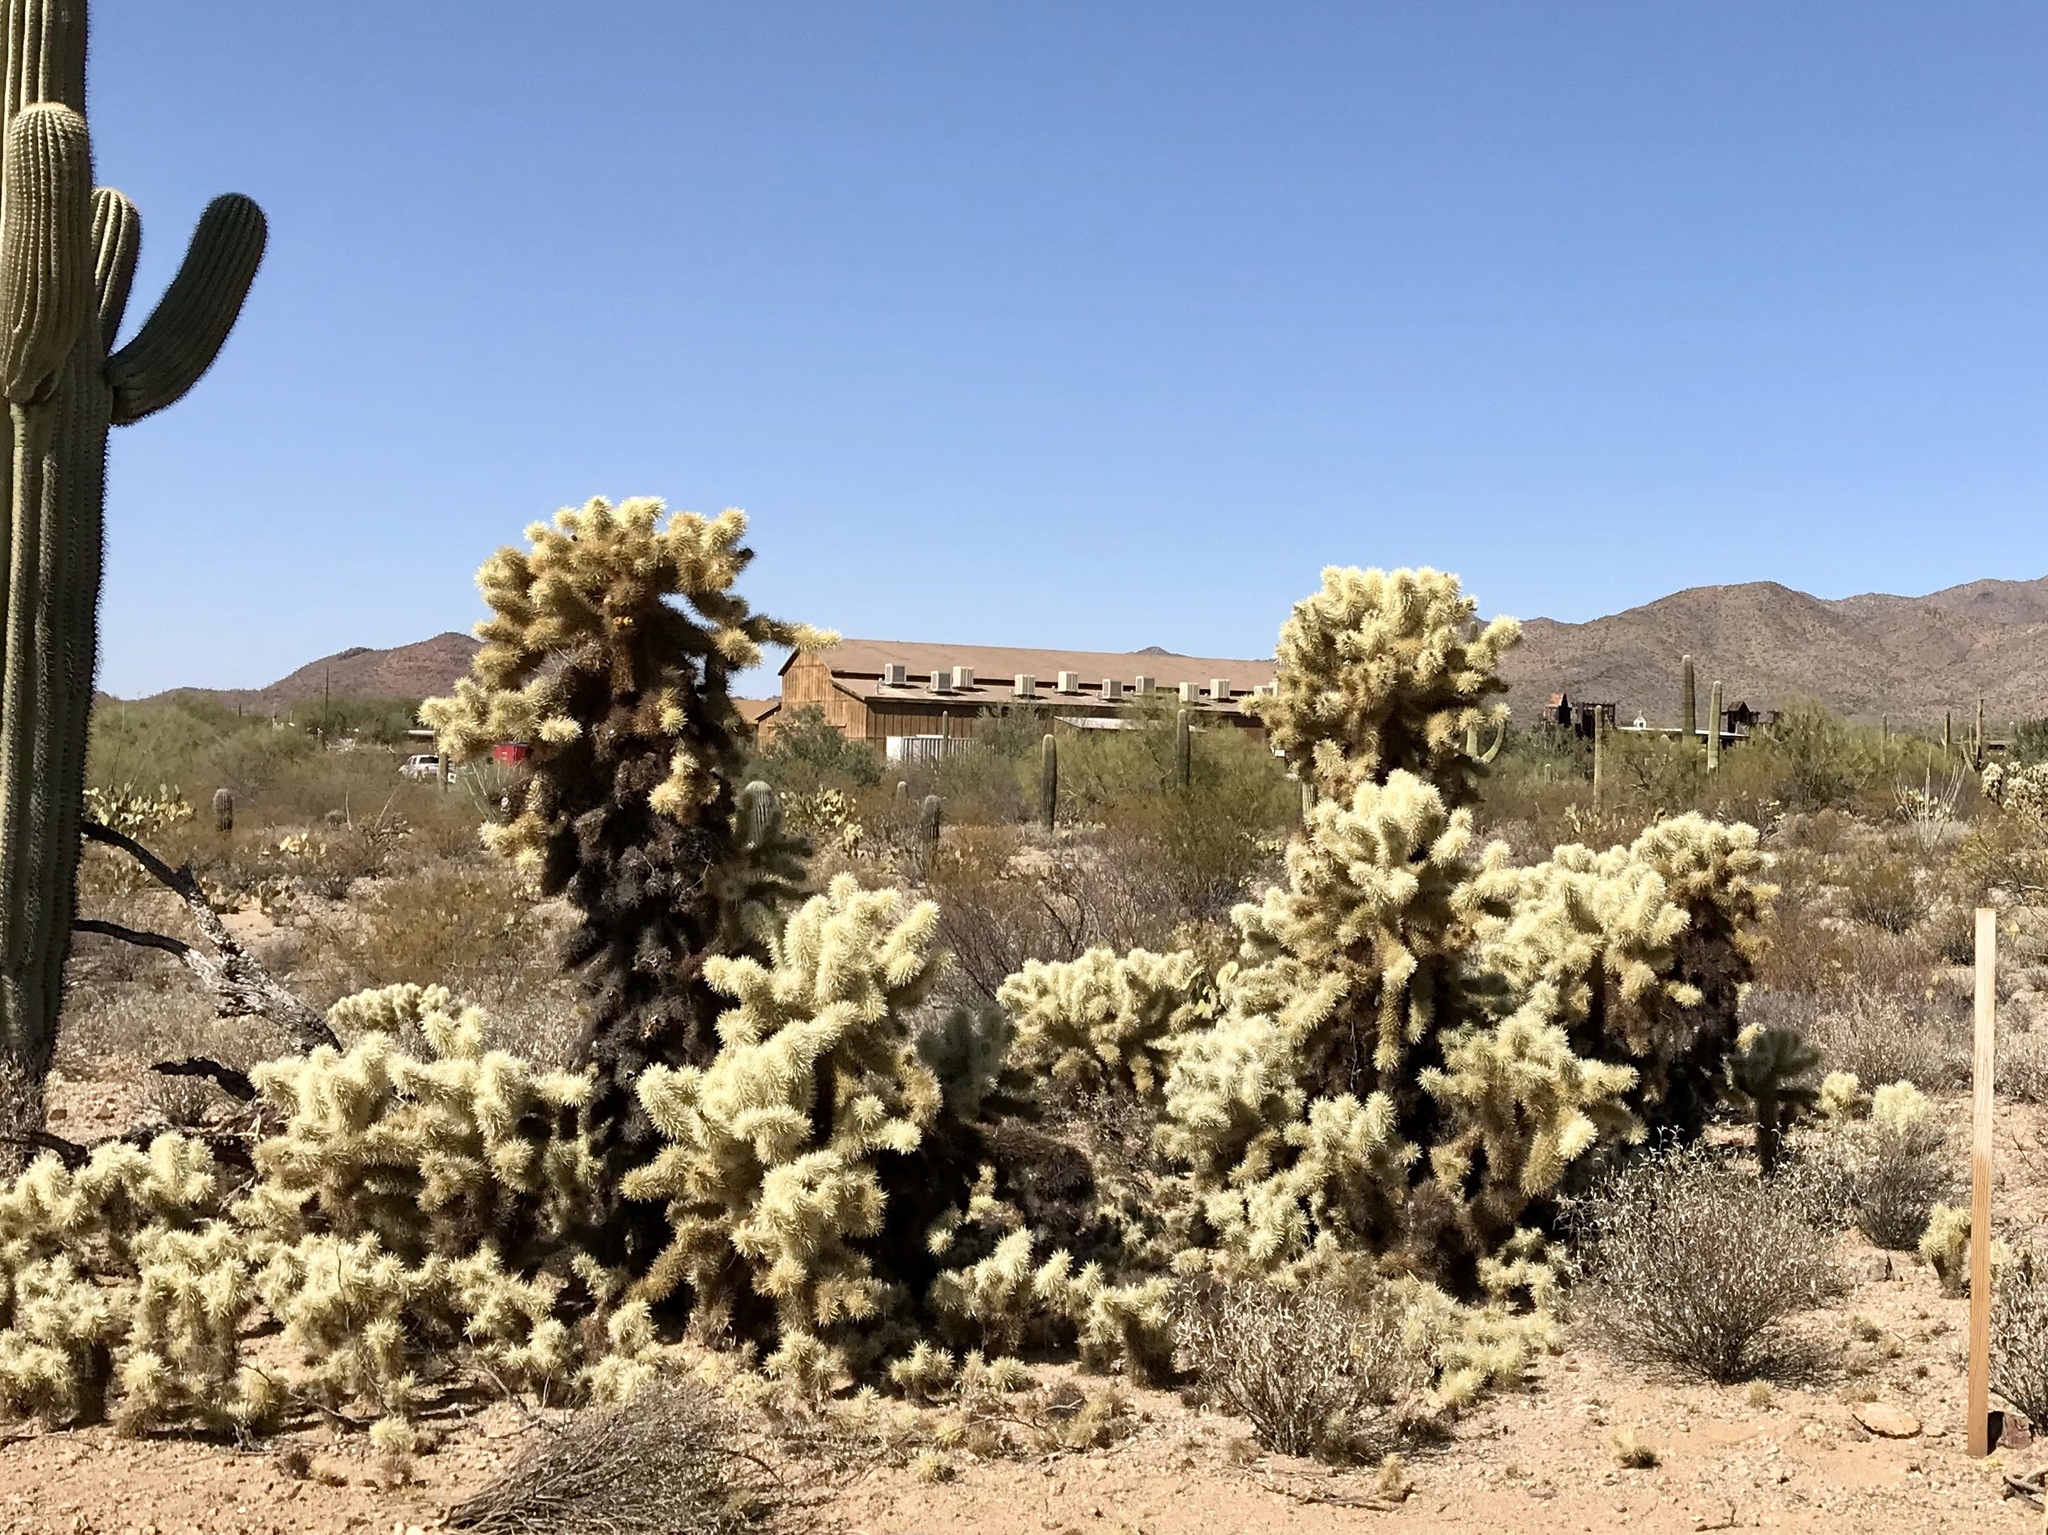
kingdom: Plantae
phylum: Tracheophyta
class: Magnoliopsida
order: Caryophyllales
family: Cactaceae
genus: Cylindropuntia
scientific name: Cylindropuntia fosbergii
